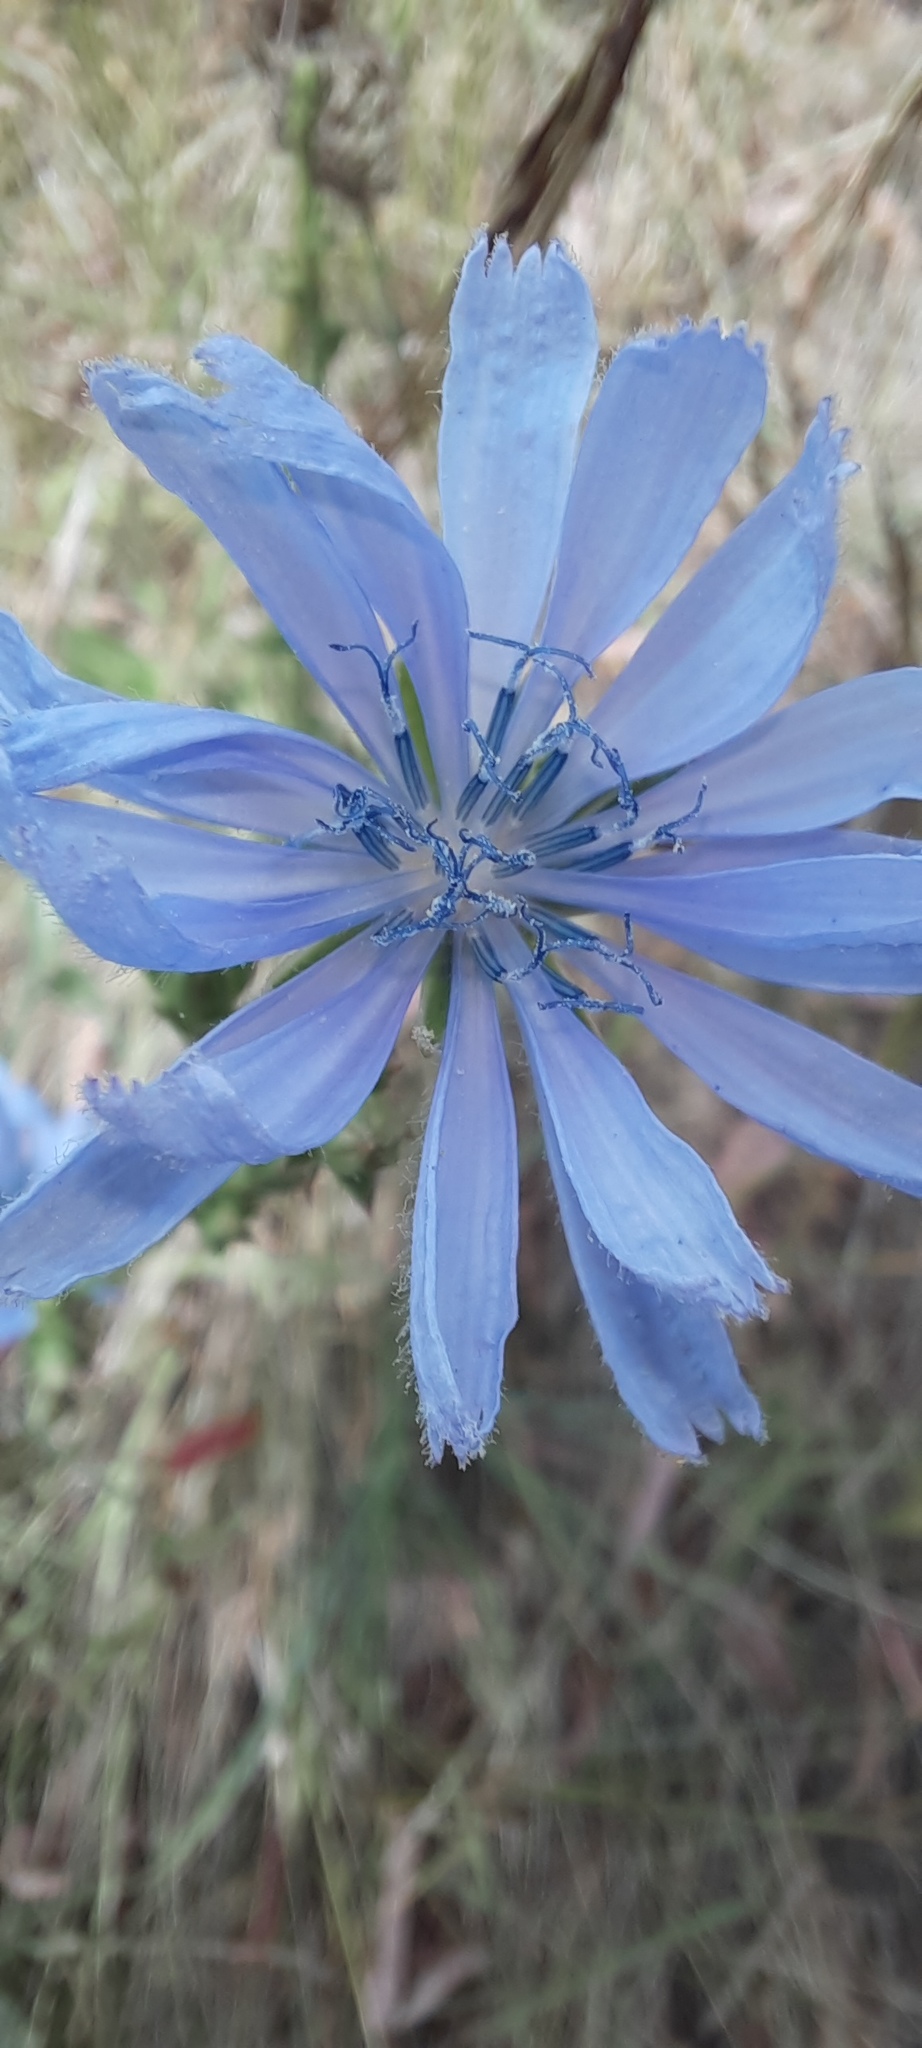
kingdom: Plantae
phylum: Tracheophyta
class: Magnoliopsida
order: Asterales
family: Asteraceae
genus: Cichorium
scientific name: Cichorium intybus
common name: Chicory
